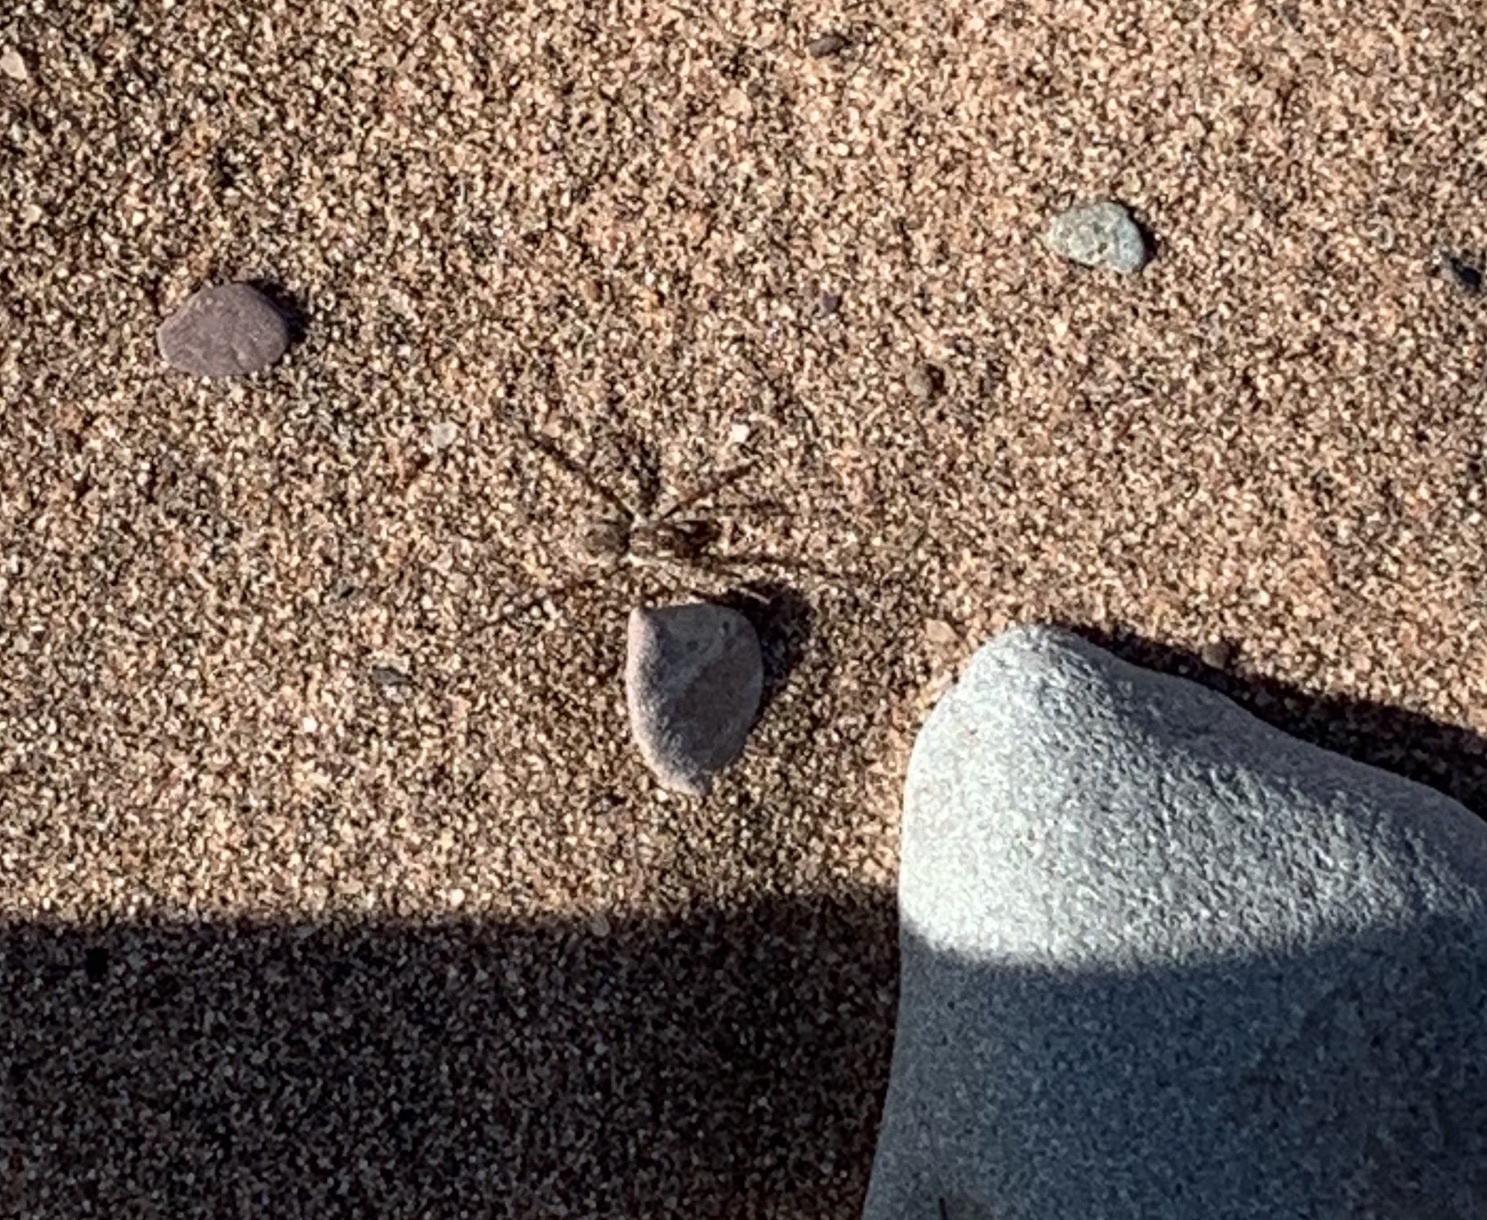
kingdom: Animalia
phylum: Arthropoda
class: Arachnida
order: Araneae
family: Lycosidae
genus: Arctosa
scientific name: Arctosa littoralis
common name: Wolf spiders
